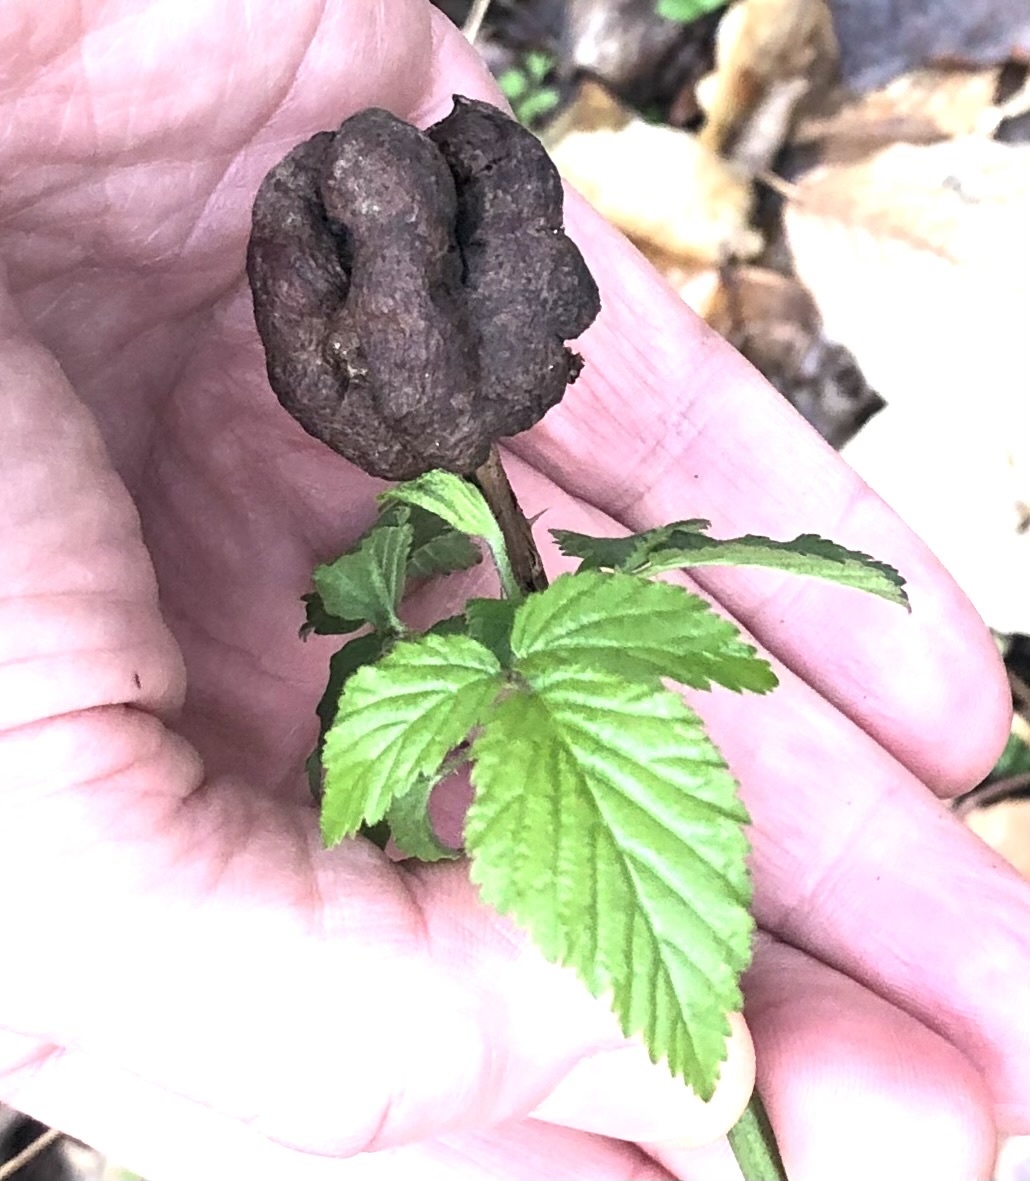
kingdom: Animalia
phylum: Arthropoda
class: Insecta
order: Hymenoptera
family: Cynipidae
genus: Diastrophus
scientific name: Diastrophus
